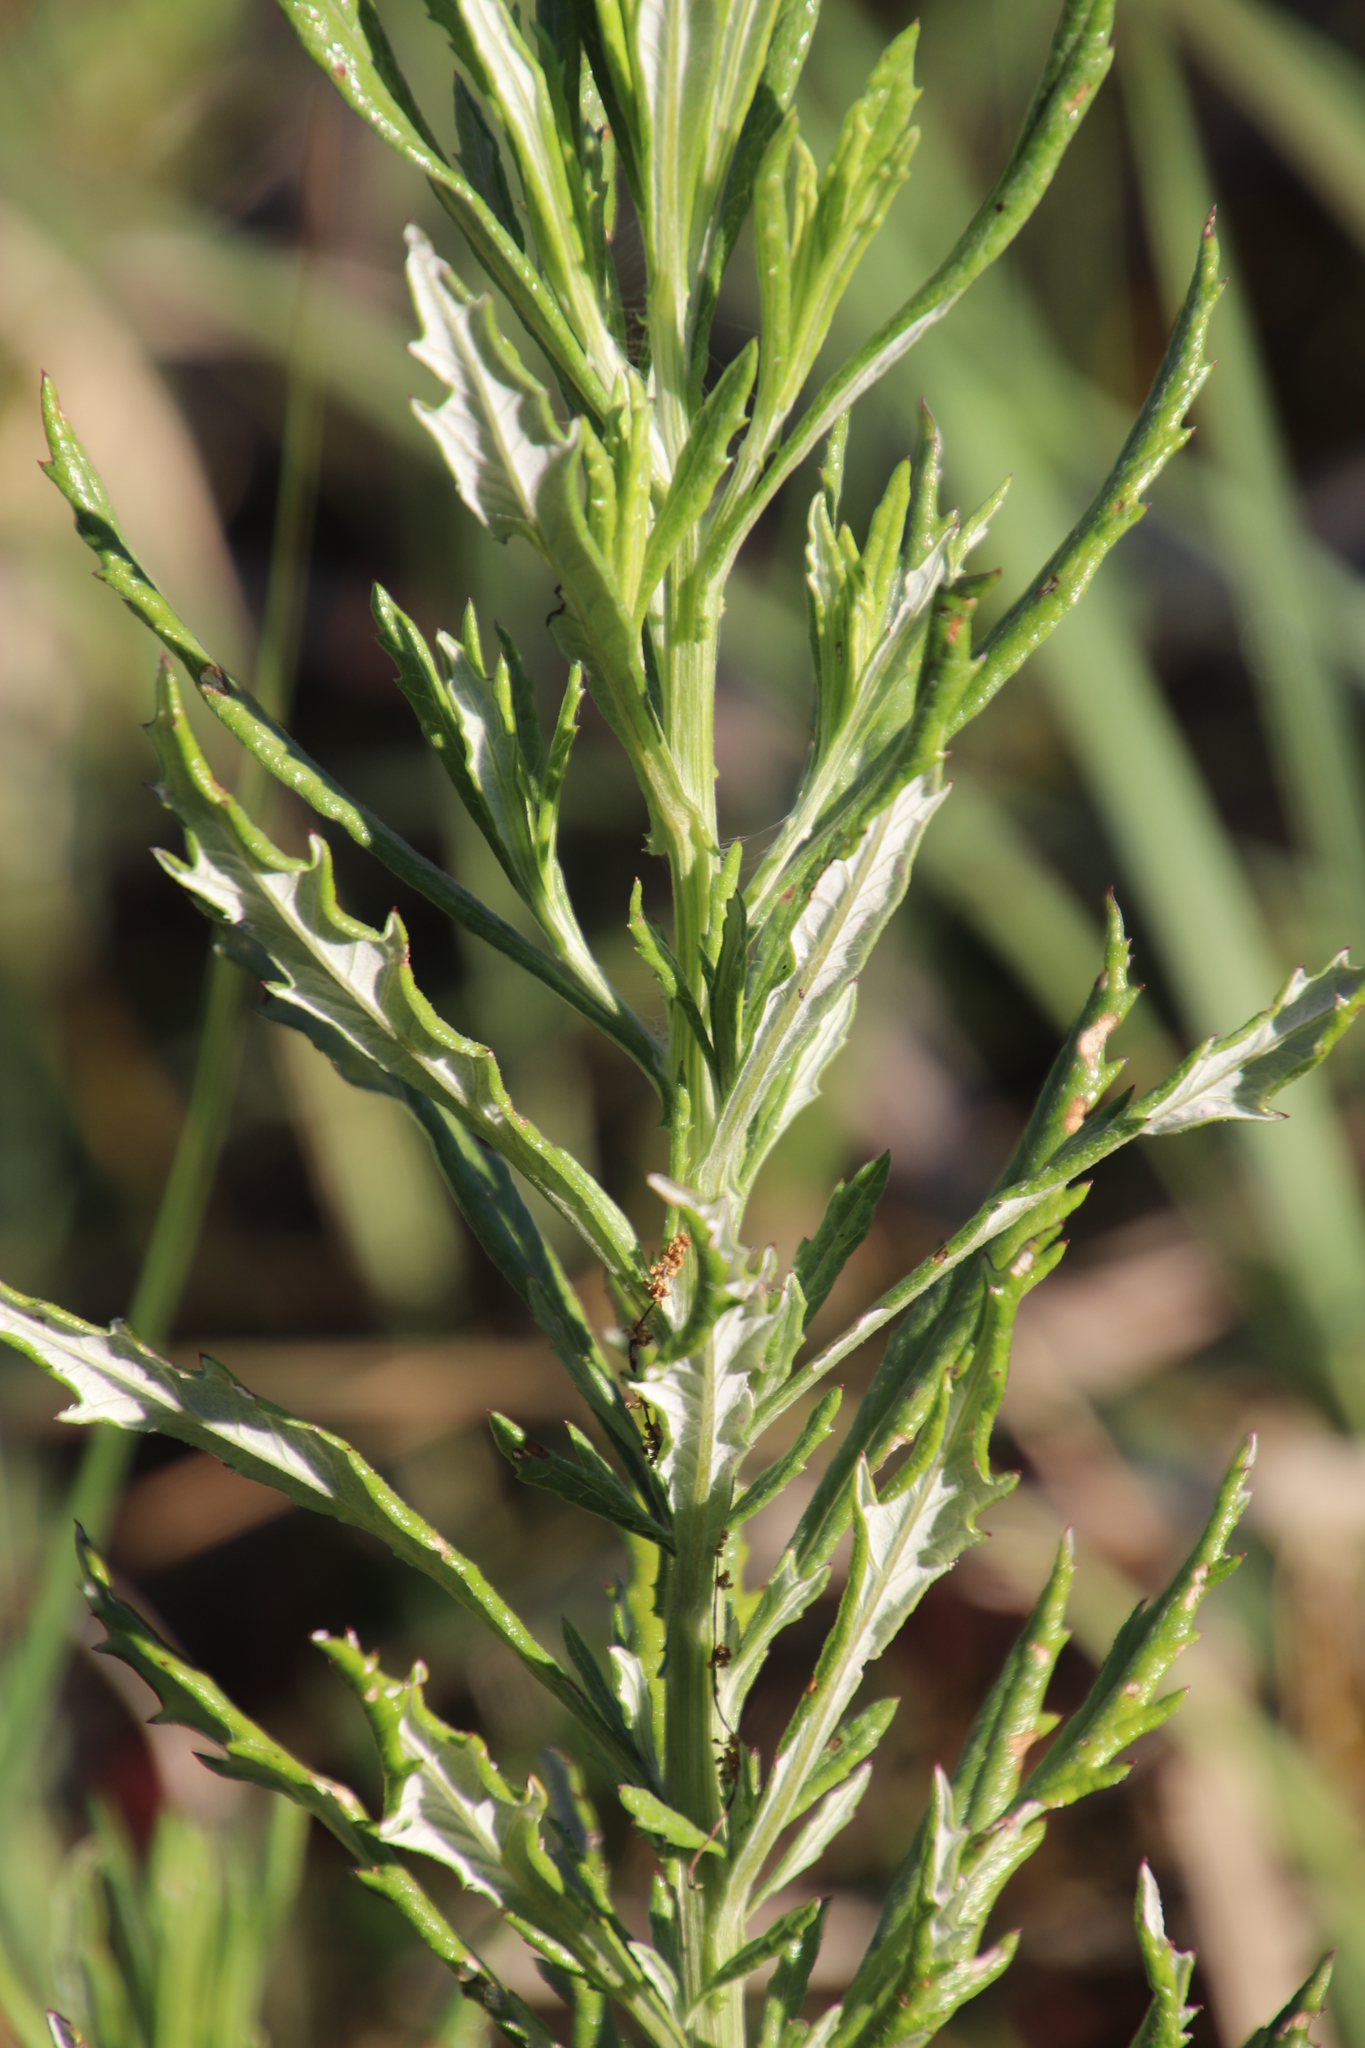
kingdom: Plantae
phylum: Tracheophyta
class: Magnoliopsida
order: Asterales
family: Asteraceae
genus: Senecio
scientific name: Senecio pterophorus
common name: Shoddy ragwort
